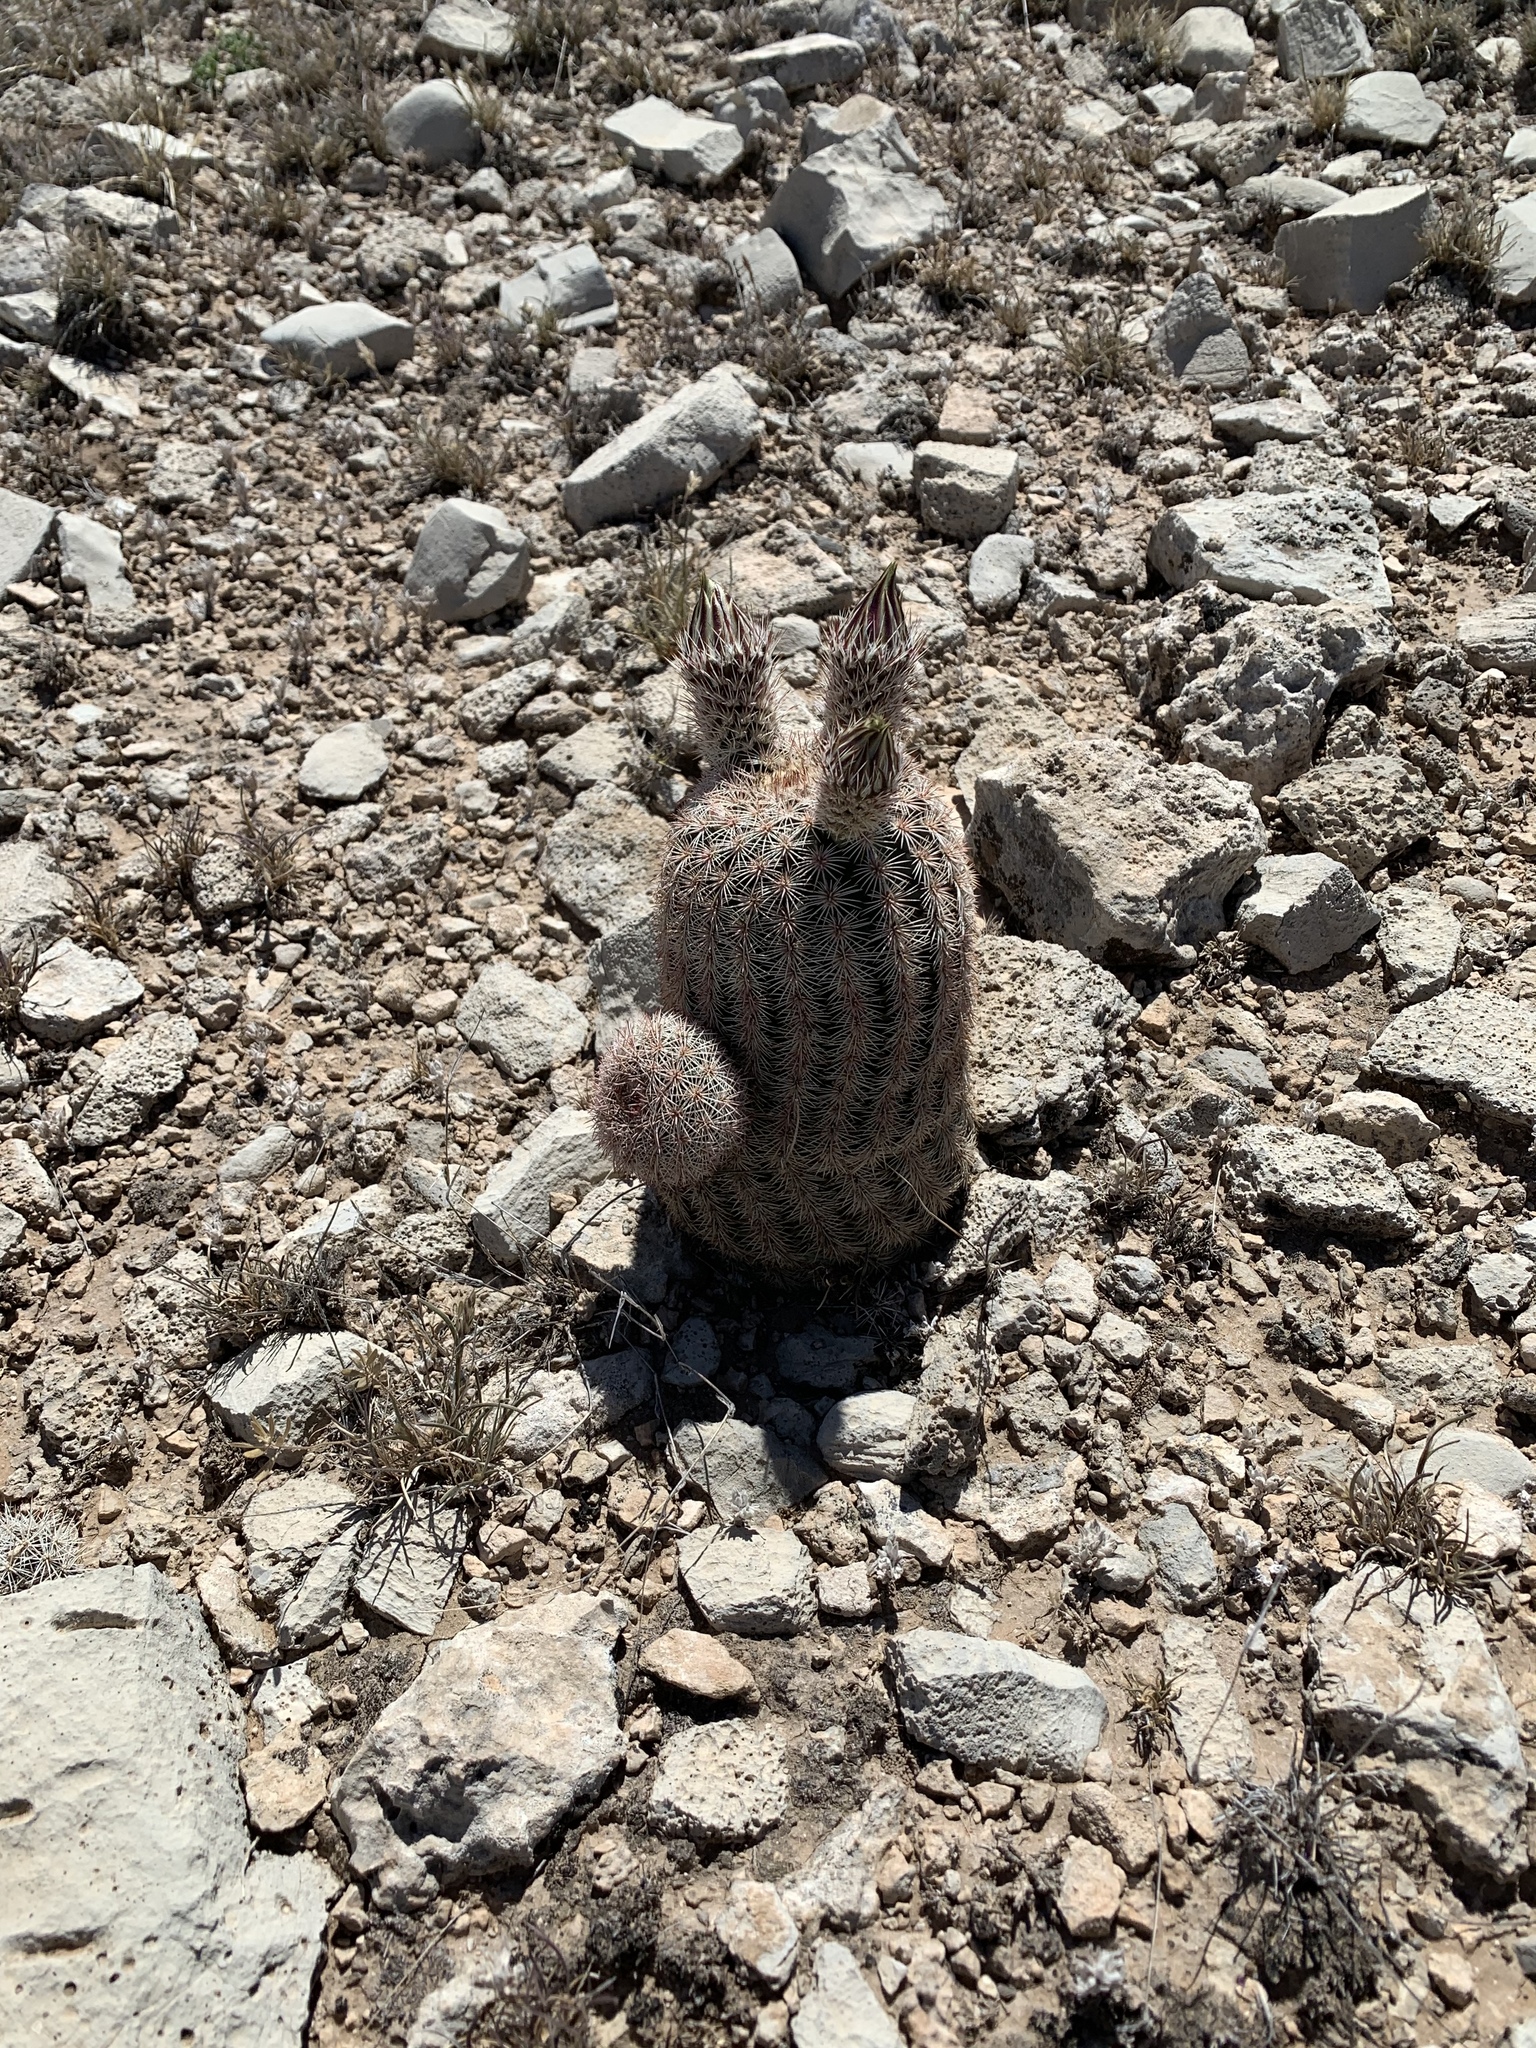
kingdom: Plantae
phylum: Tracheophyta
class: Magnoliopsida
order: Caryophyllales
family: Cactaceae
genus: Echinocereus
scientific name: Echinocereus dasyacanthus
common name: Spiny hedgehog cactus
